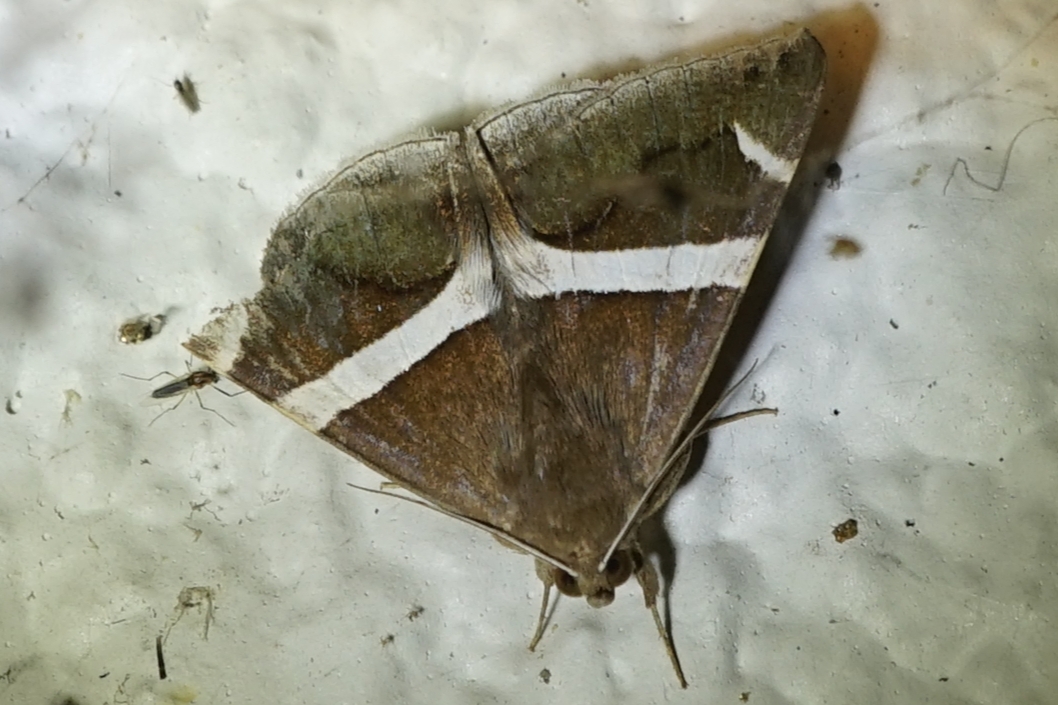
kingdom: Animalia
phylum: Arthropoda
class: Insecta
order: Lepidoptera
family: Erebidae
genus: Bastilla
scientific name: Bastilla arctotaenia
